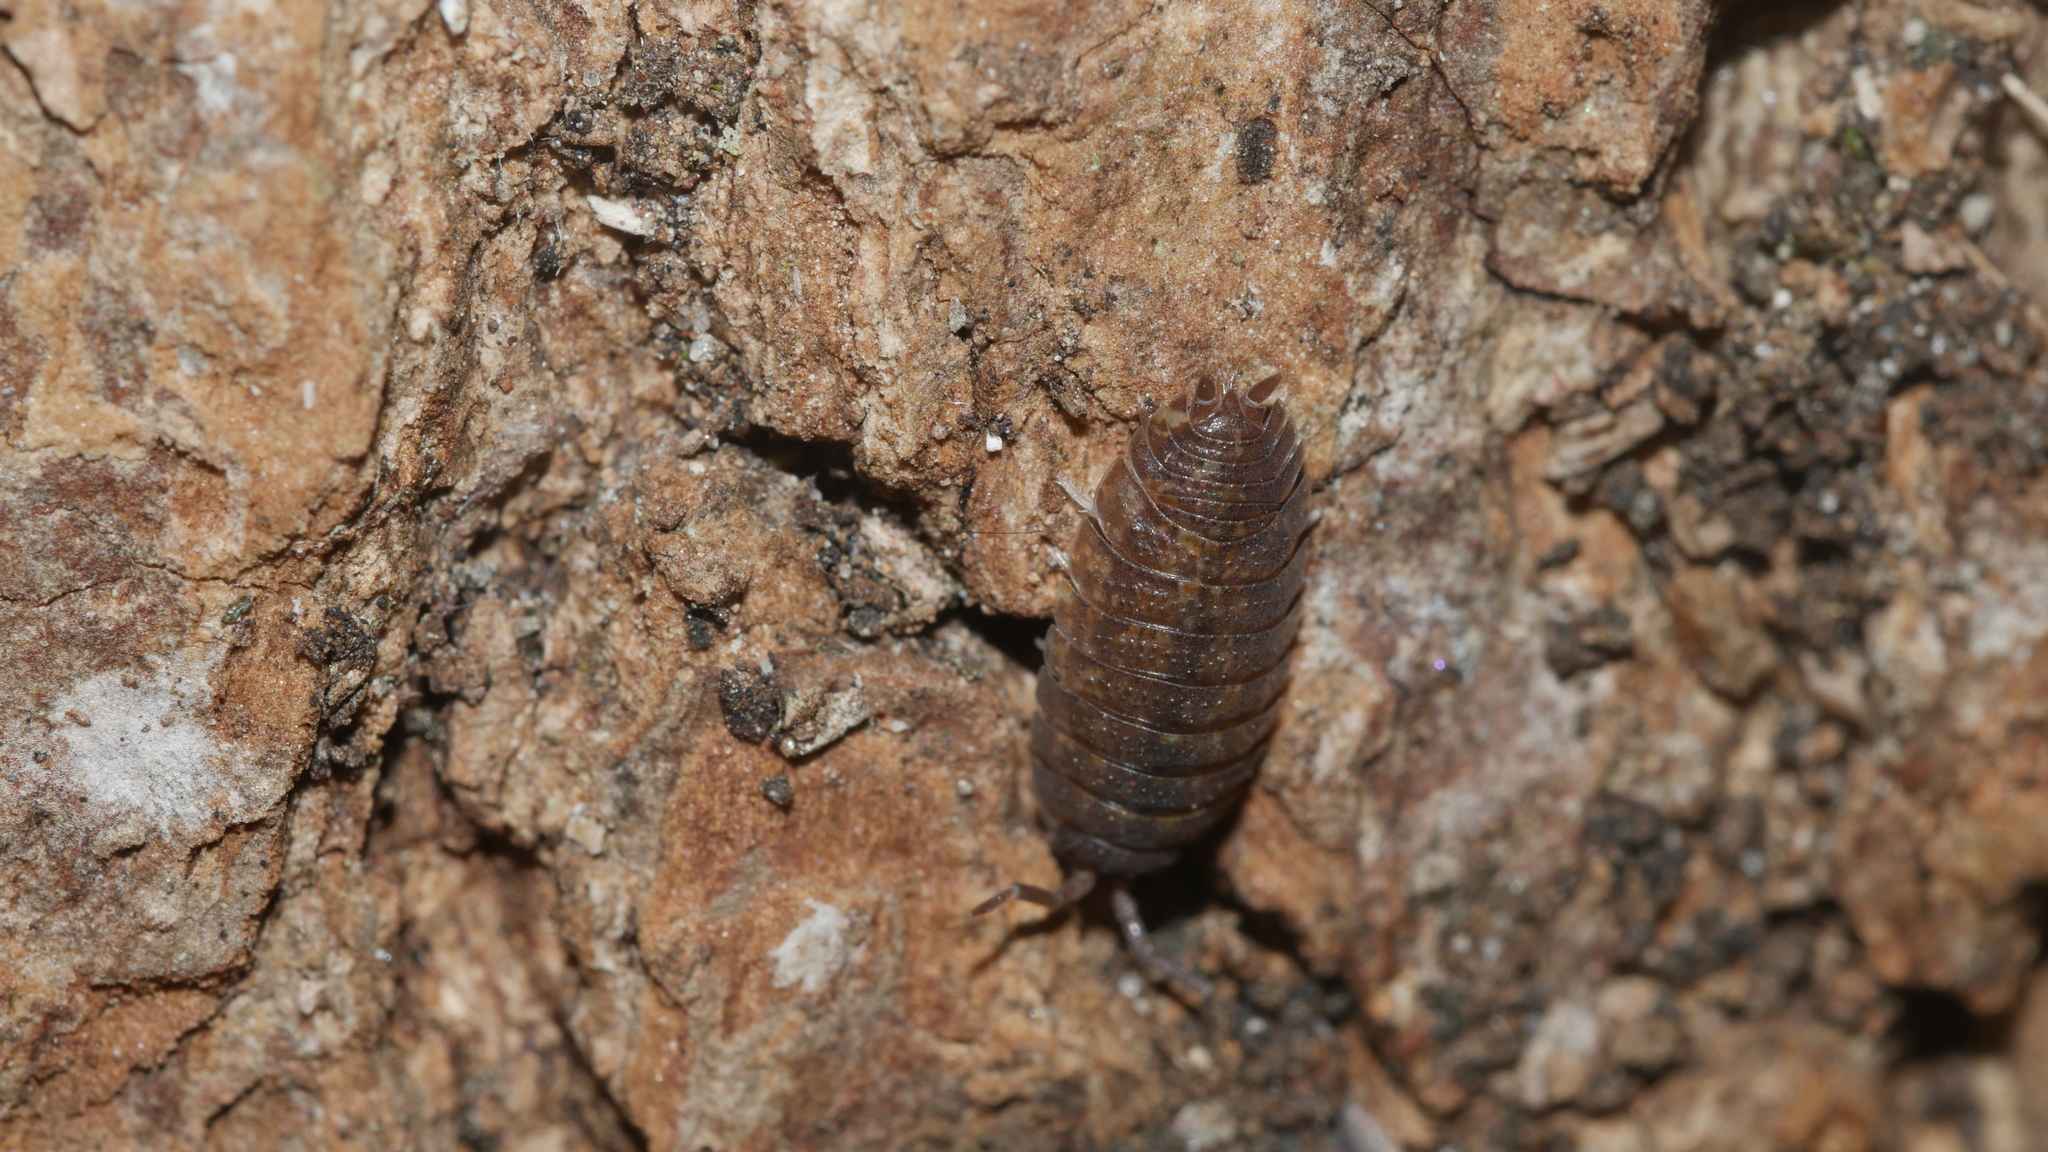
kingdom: Animalia
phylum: Arthropoda
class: Malacostraca
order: Isopoda
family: Porcellionidae
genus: Porcellio
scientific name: Porcellio scaber
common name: Common rough woodlouse
